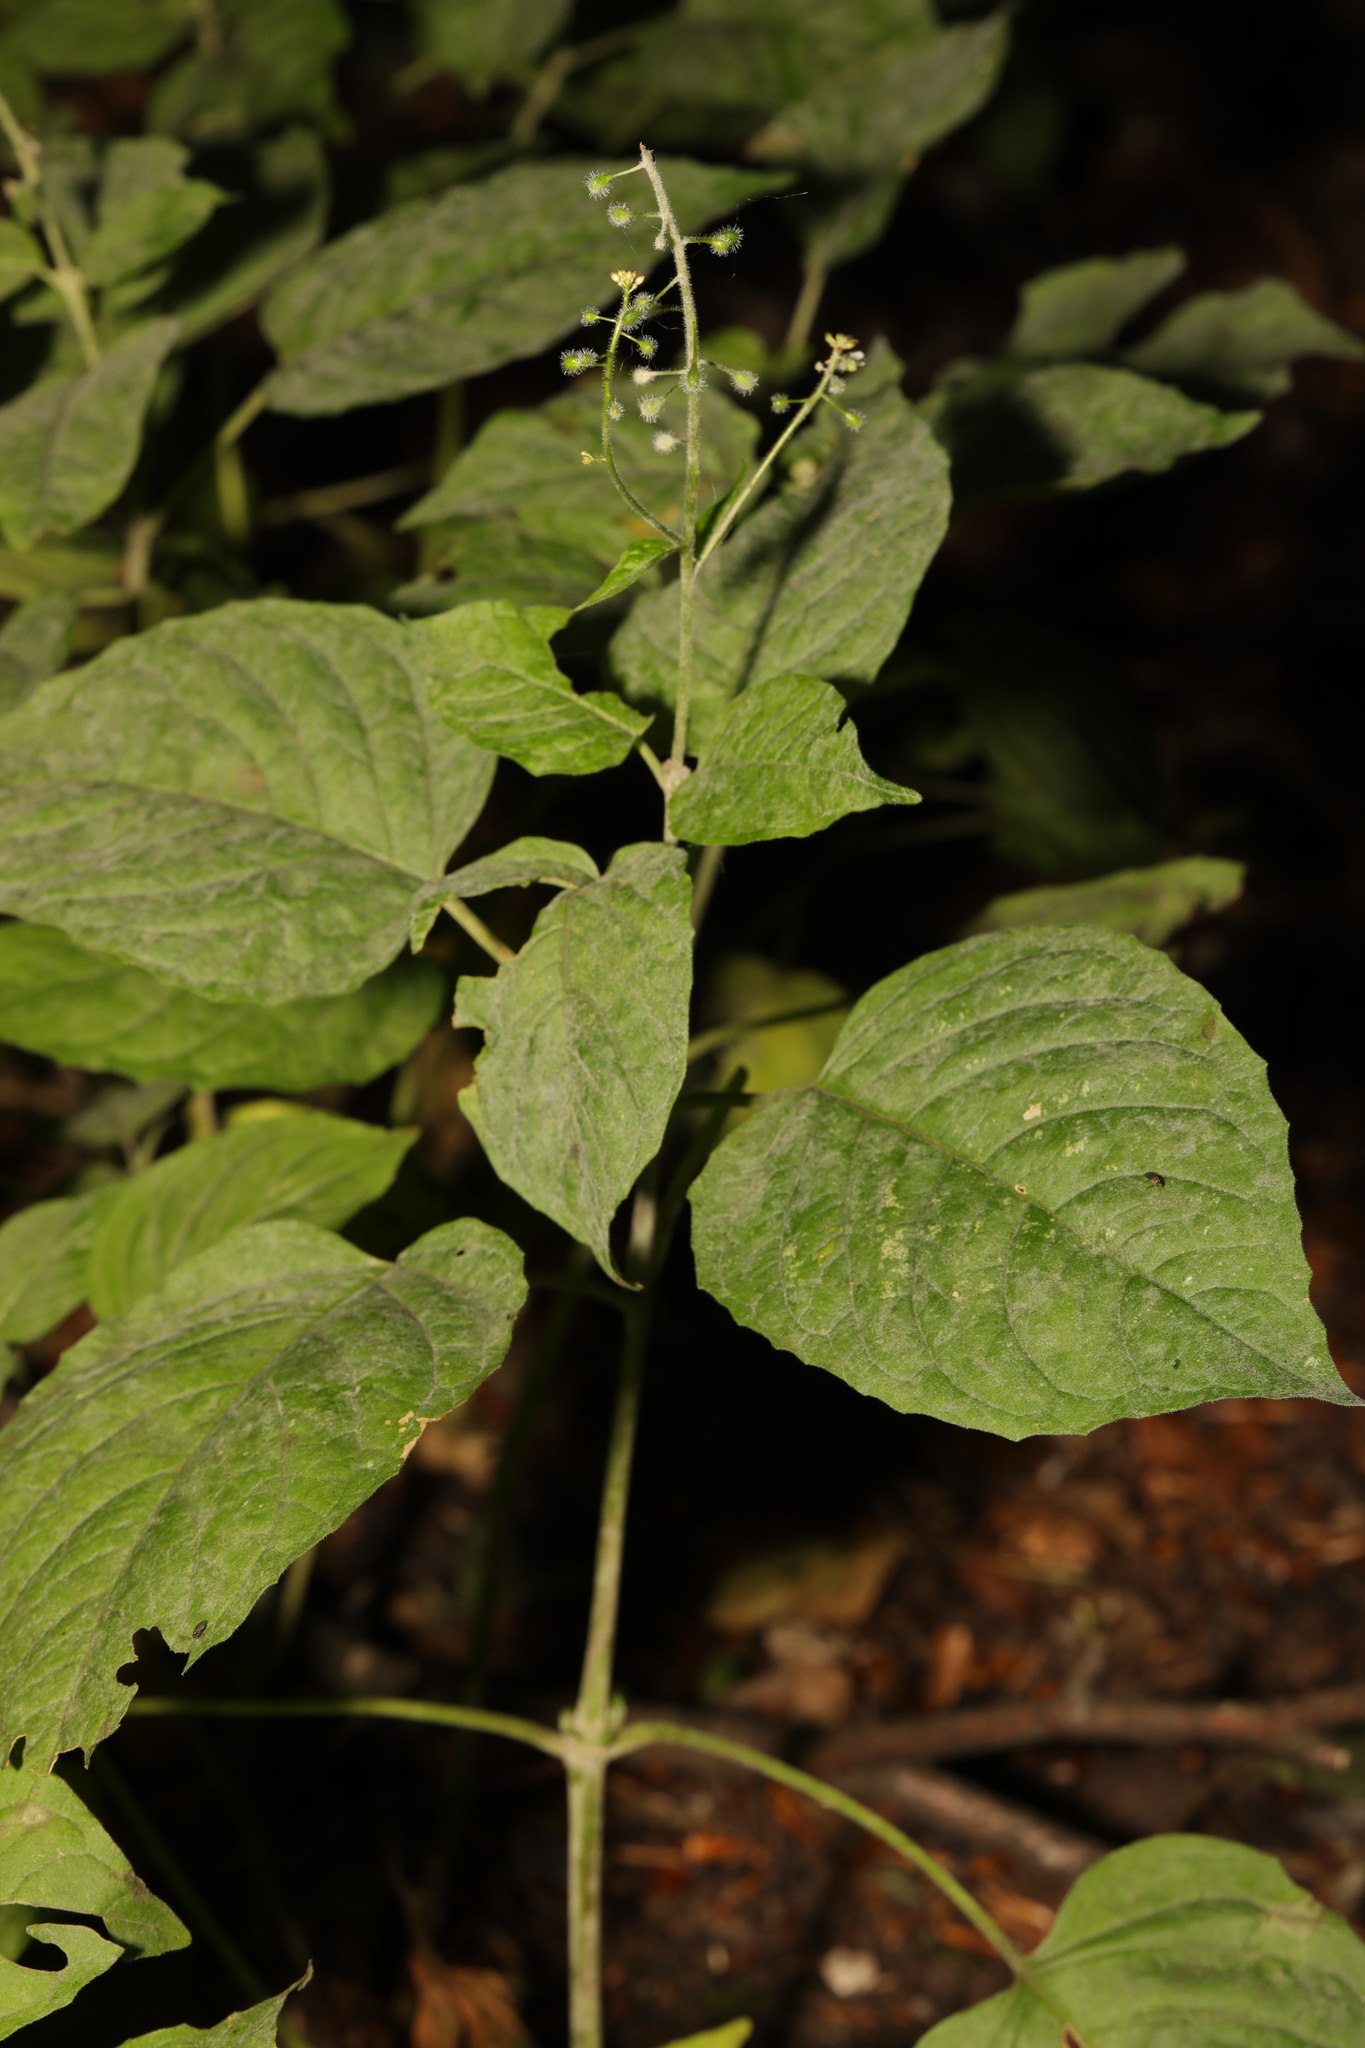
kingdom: Plantae
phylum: Tracheophyta
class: Magnoliopsida
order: Myrtales
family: Onagraceae
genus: Circaea
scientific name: Circaea lutetiana
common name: Enchanter's-nightshade
